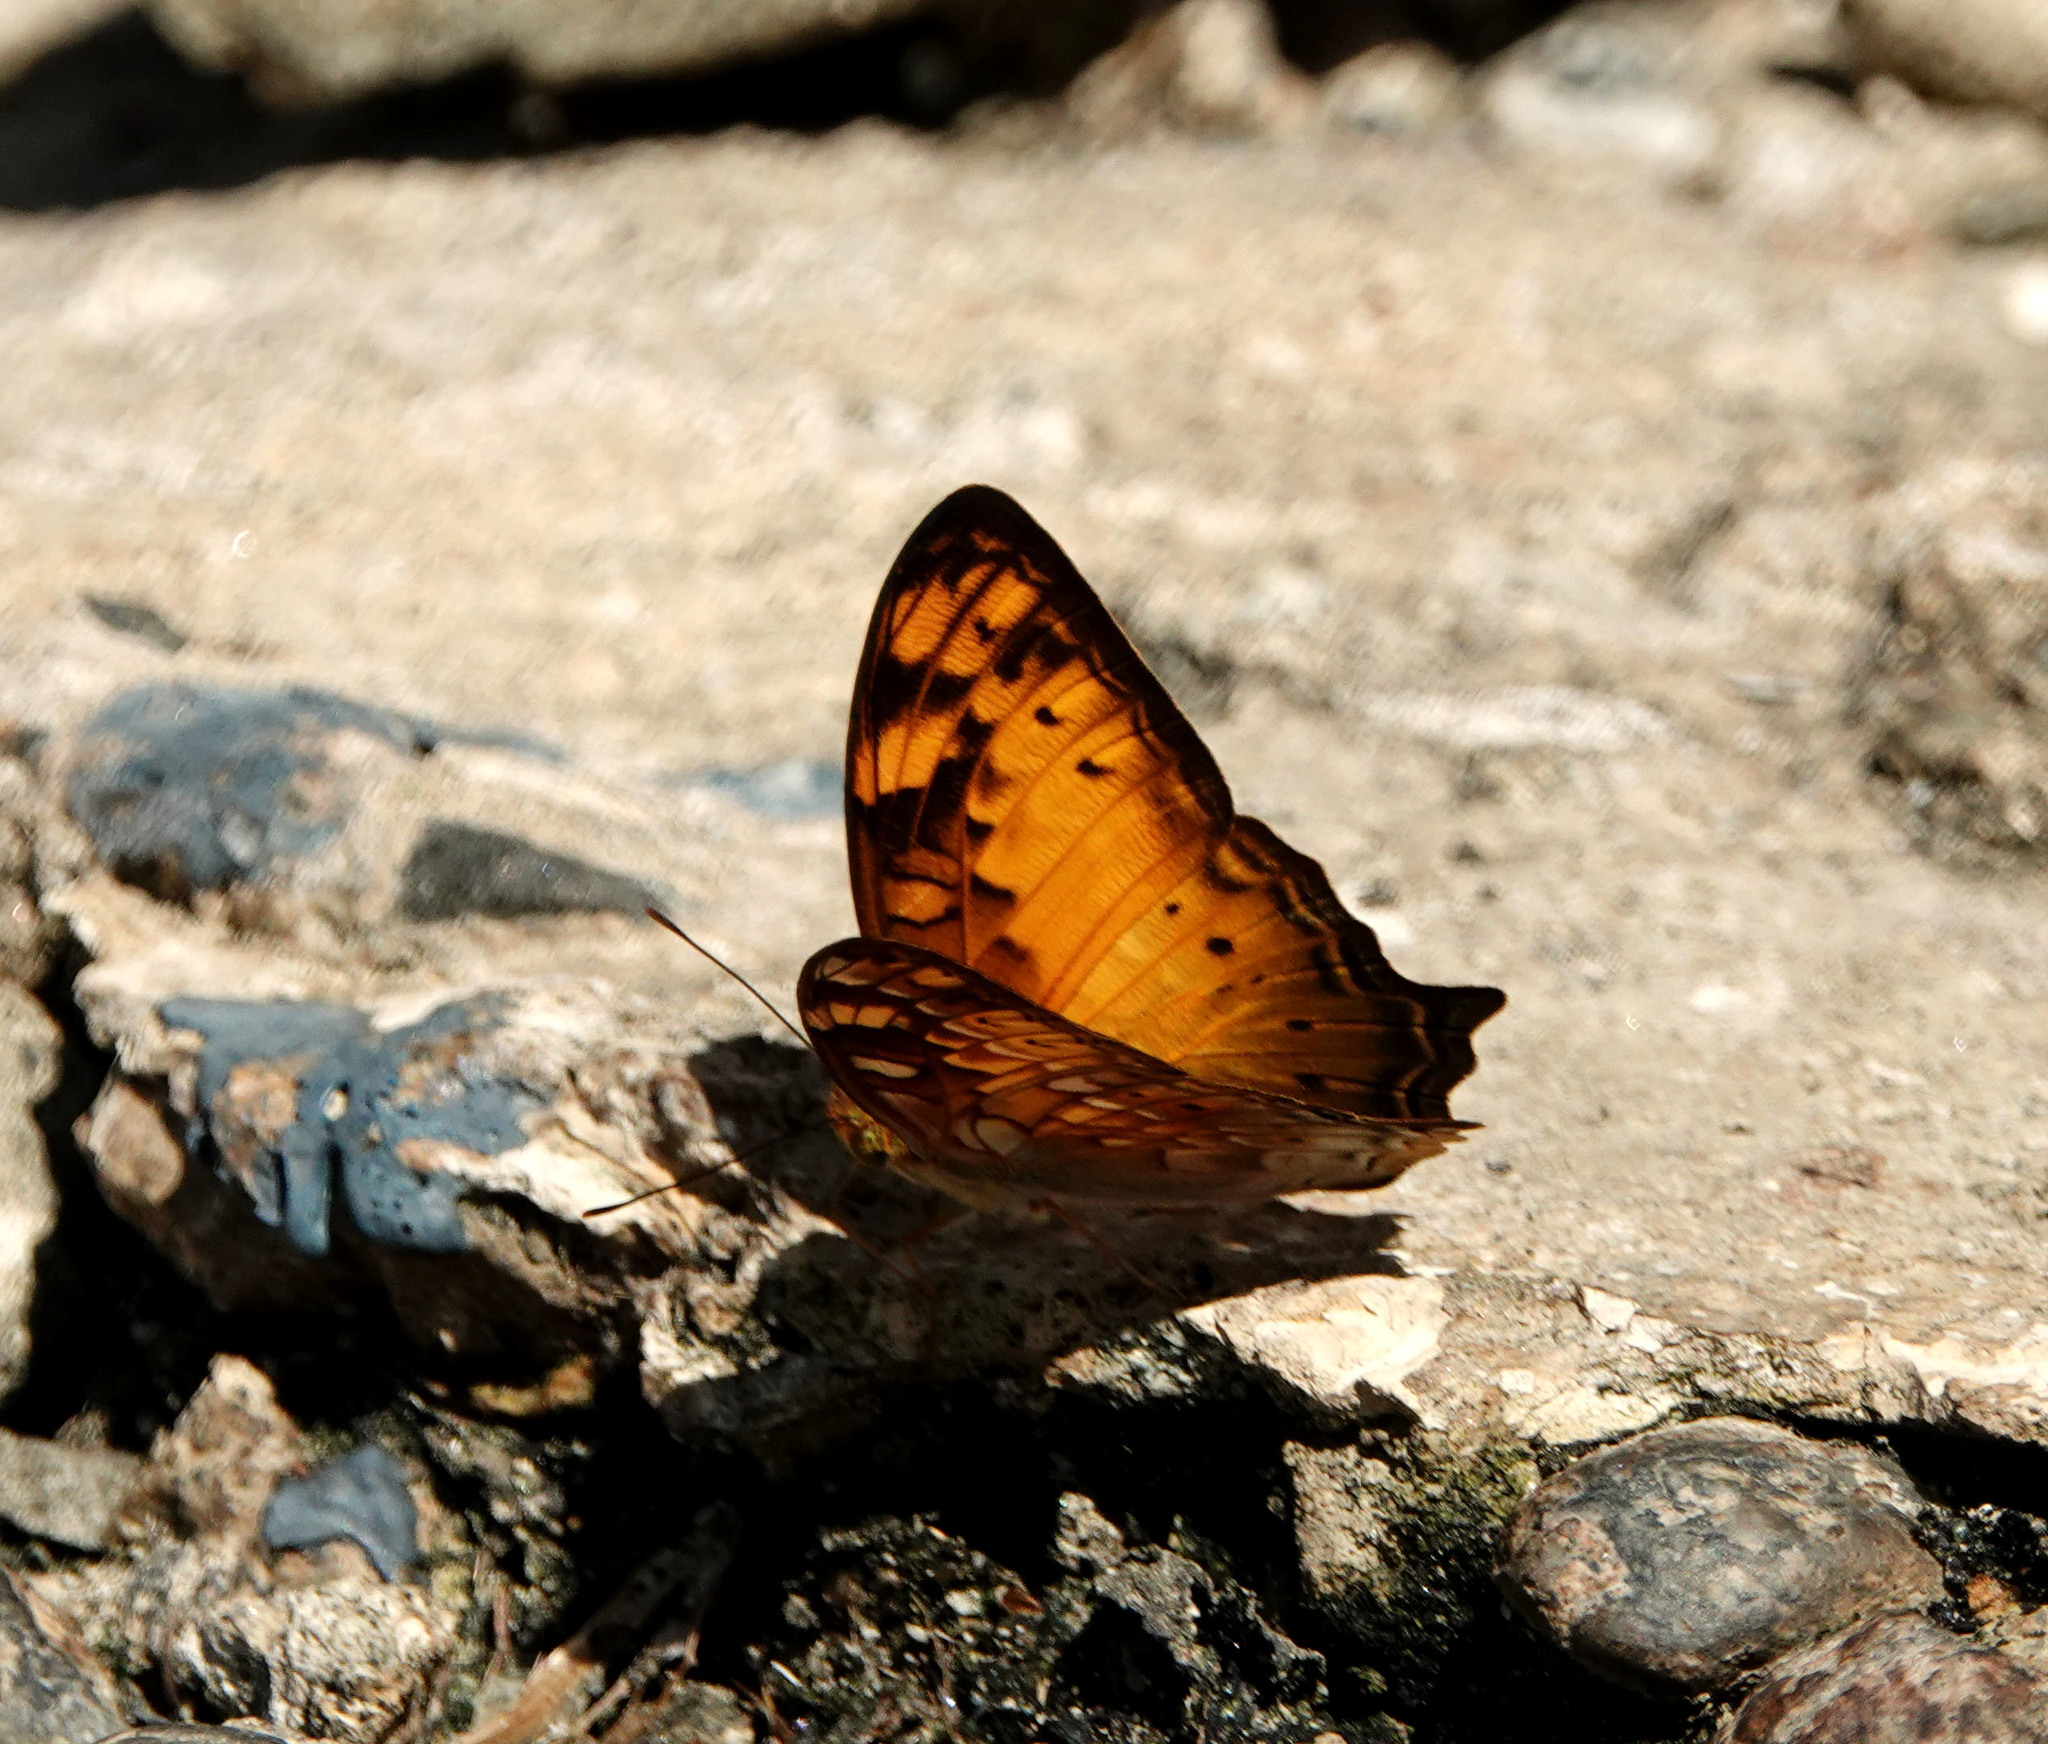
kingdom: Animalia
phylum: Arthropoda
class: Insecta
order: Lepidoptera
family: Nymphalidae
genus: Vagrans
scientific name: Vagrans sinha
